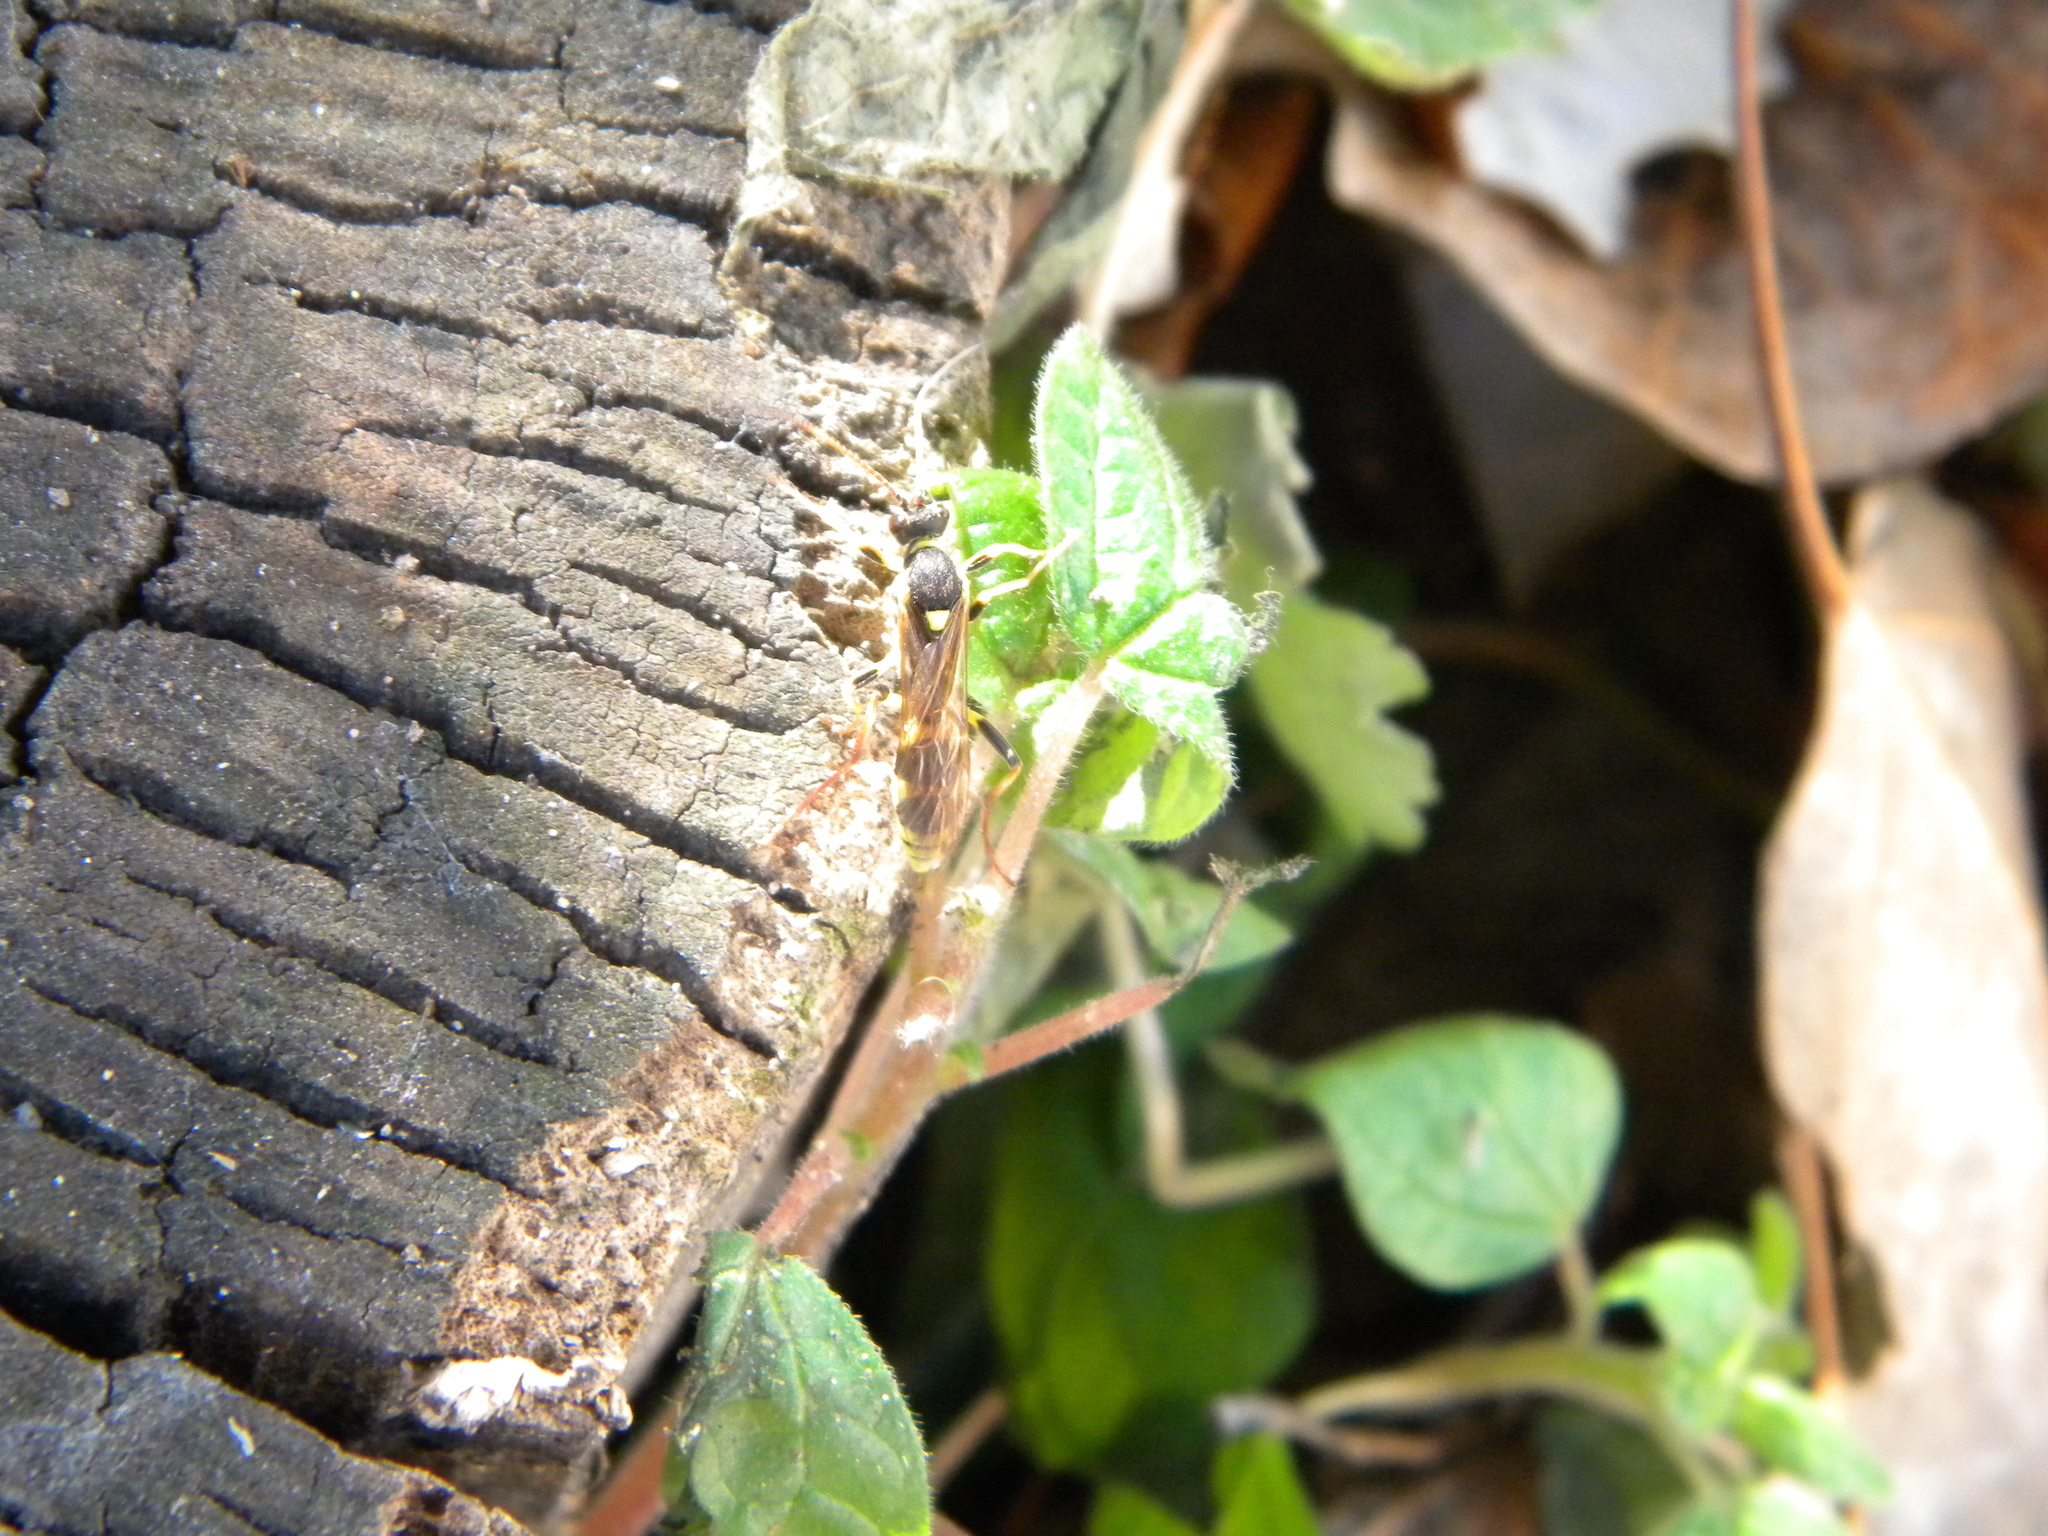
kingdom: Animalia
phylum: Arthropoda
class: Insecta
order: Hymenoptera
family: Ichneumonidae
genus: Amblyteles
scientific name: Amblyteles armatorius
